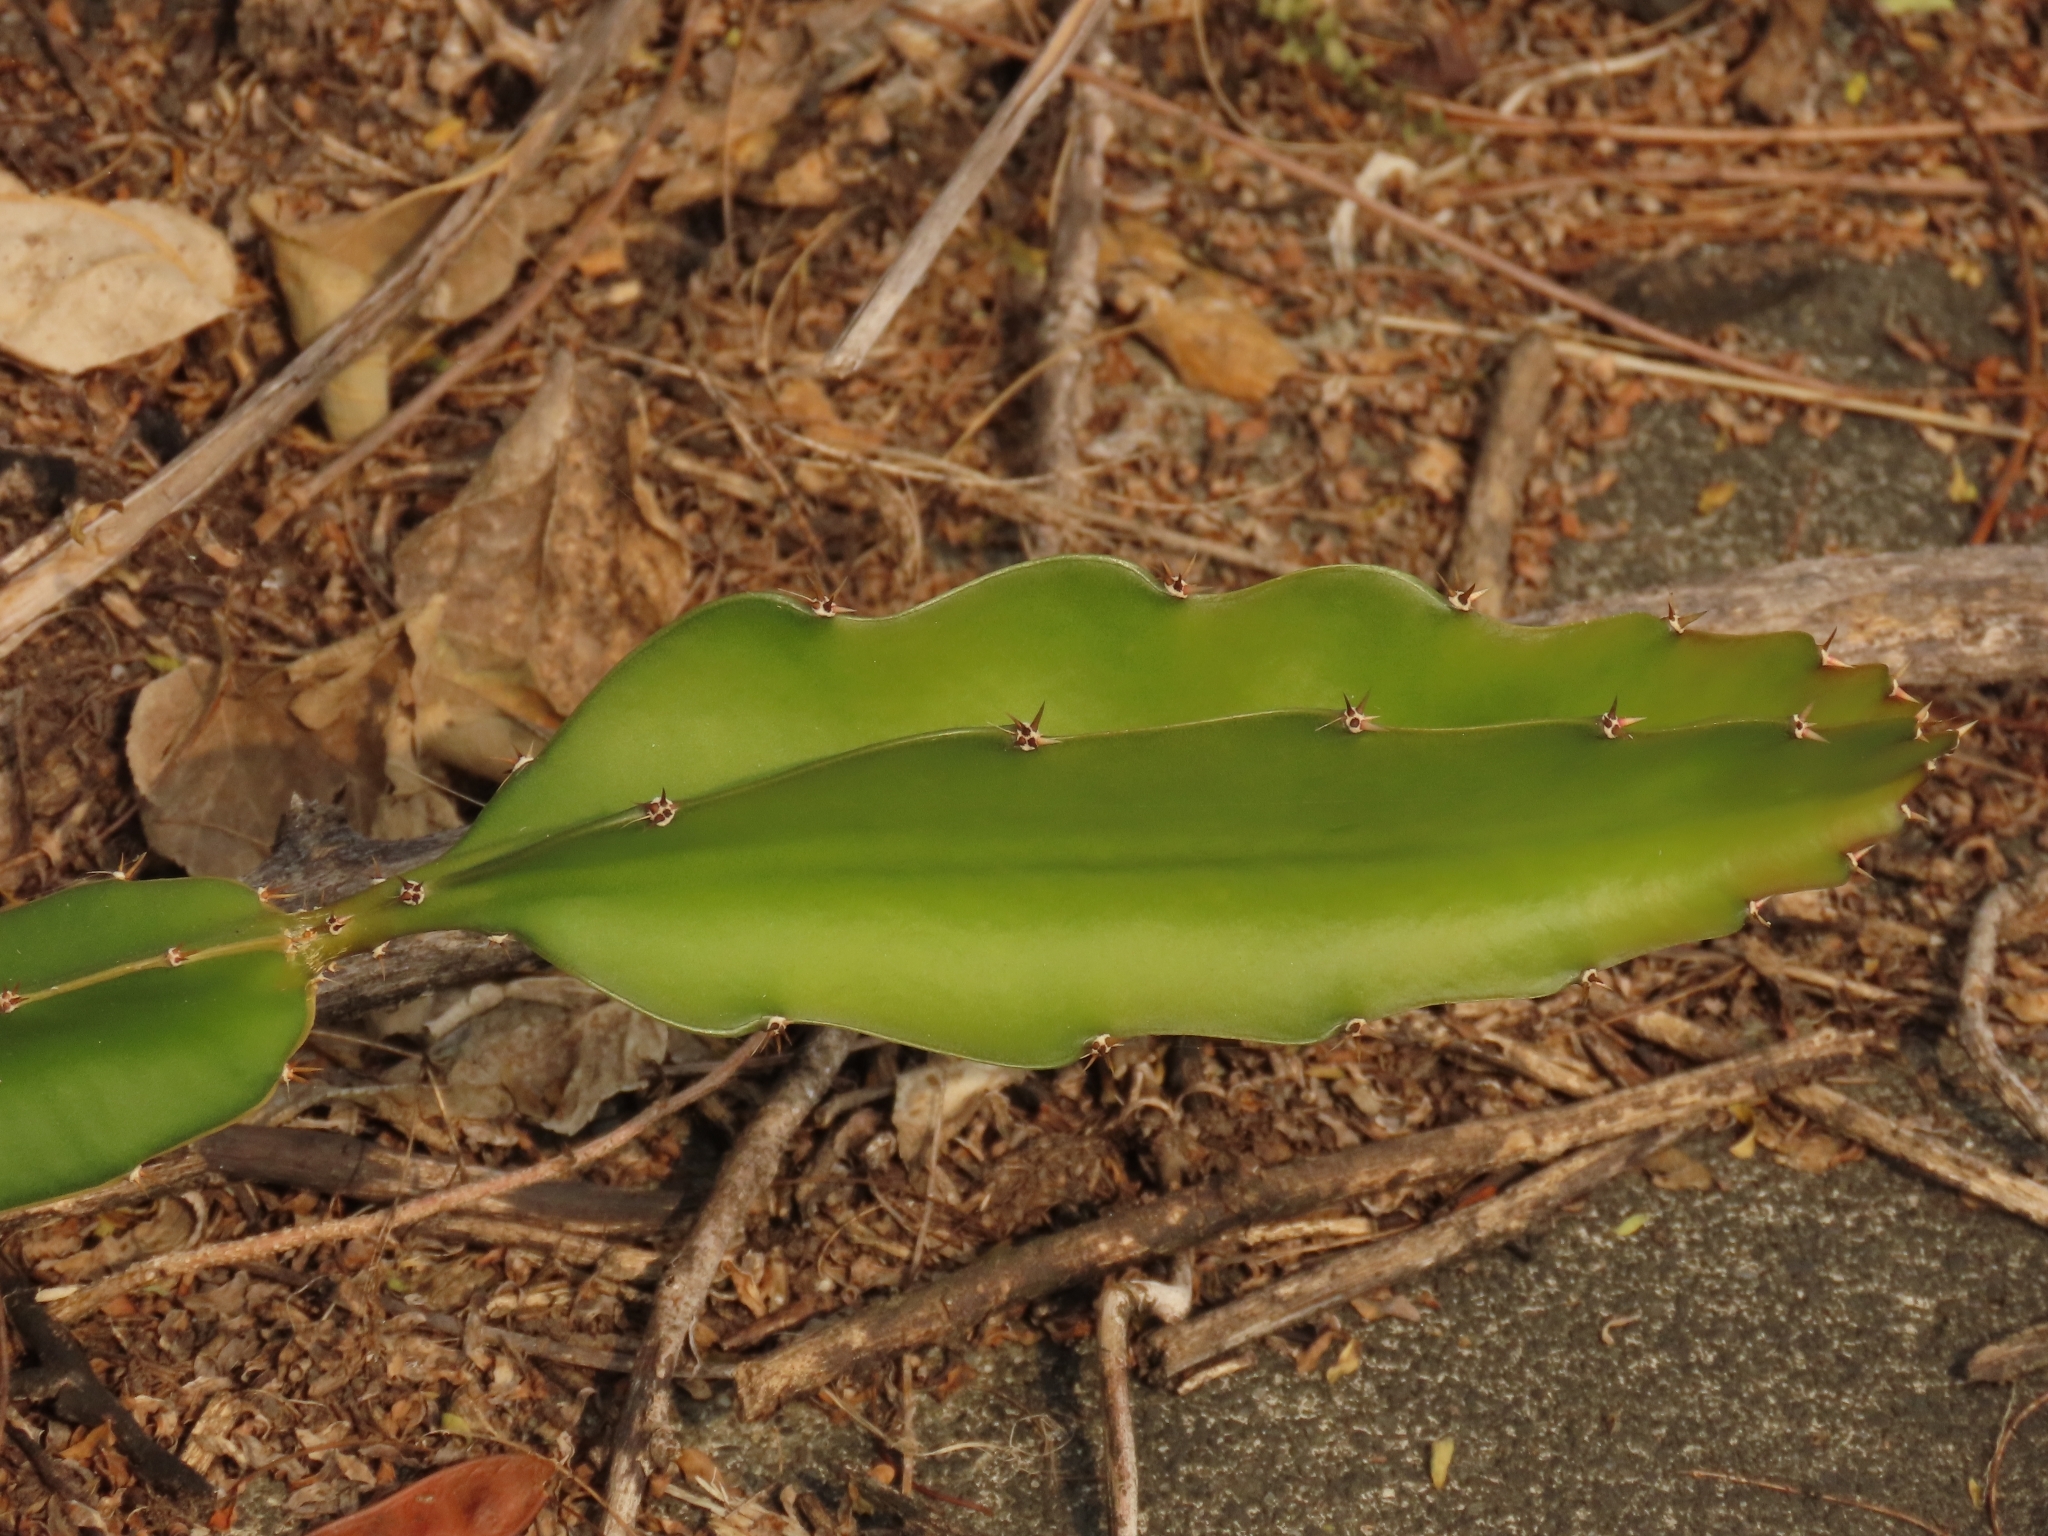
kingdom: Plantae
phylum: Tracheophyta
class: Magnoliopsida
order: Caryophyllales
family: Cactaceae
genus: Selenicereus
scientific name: Selenicereus undatus
